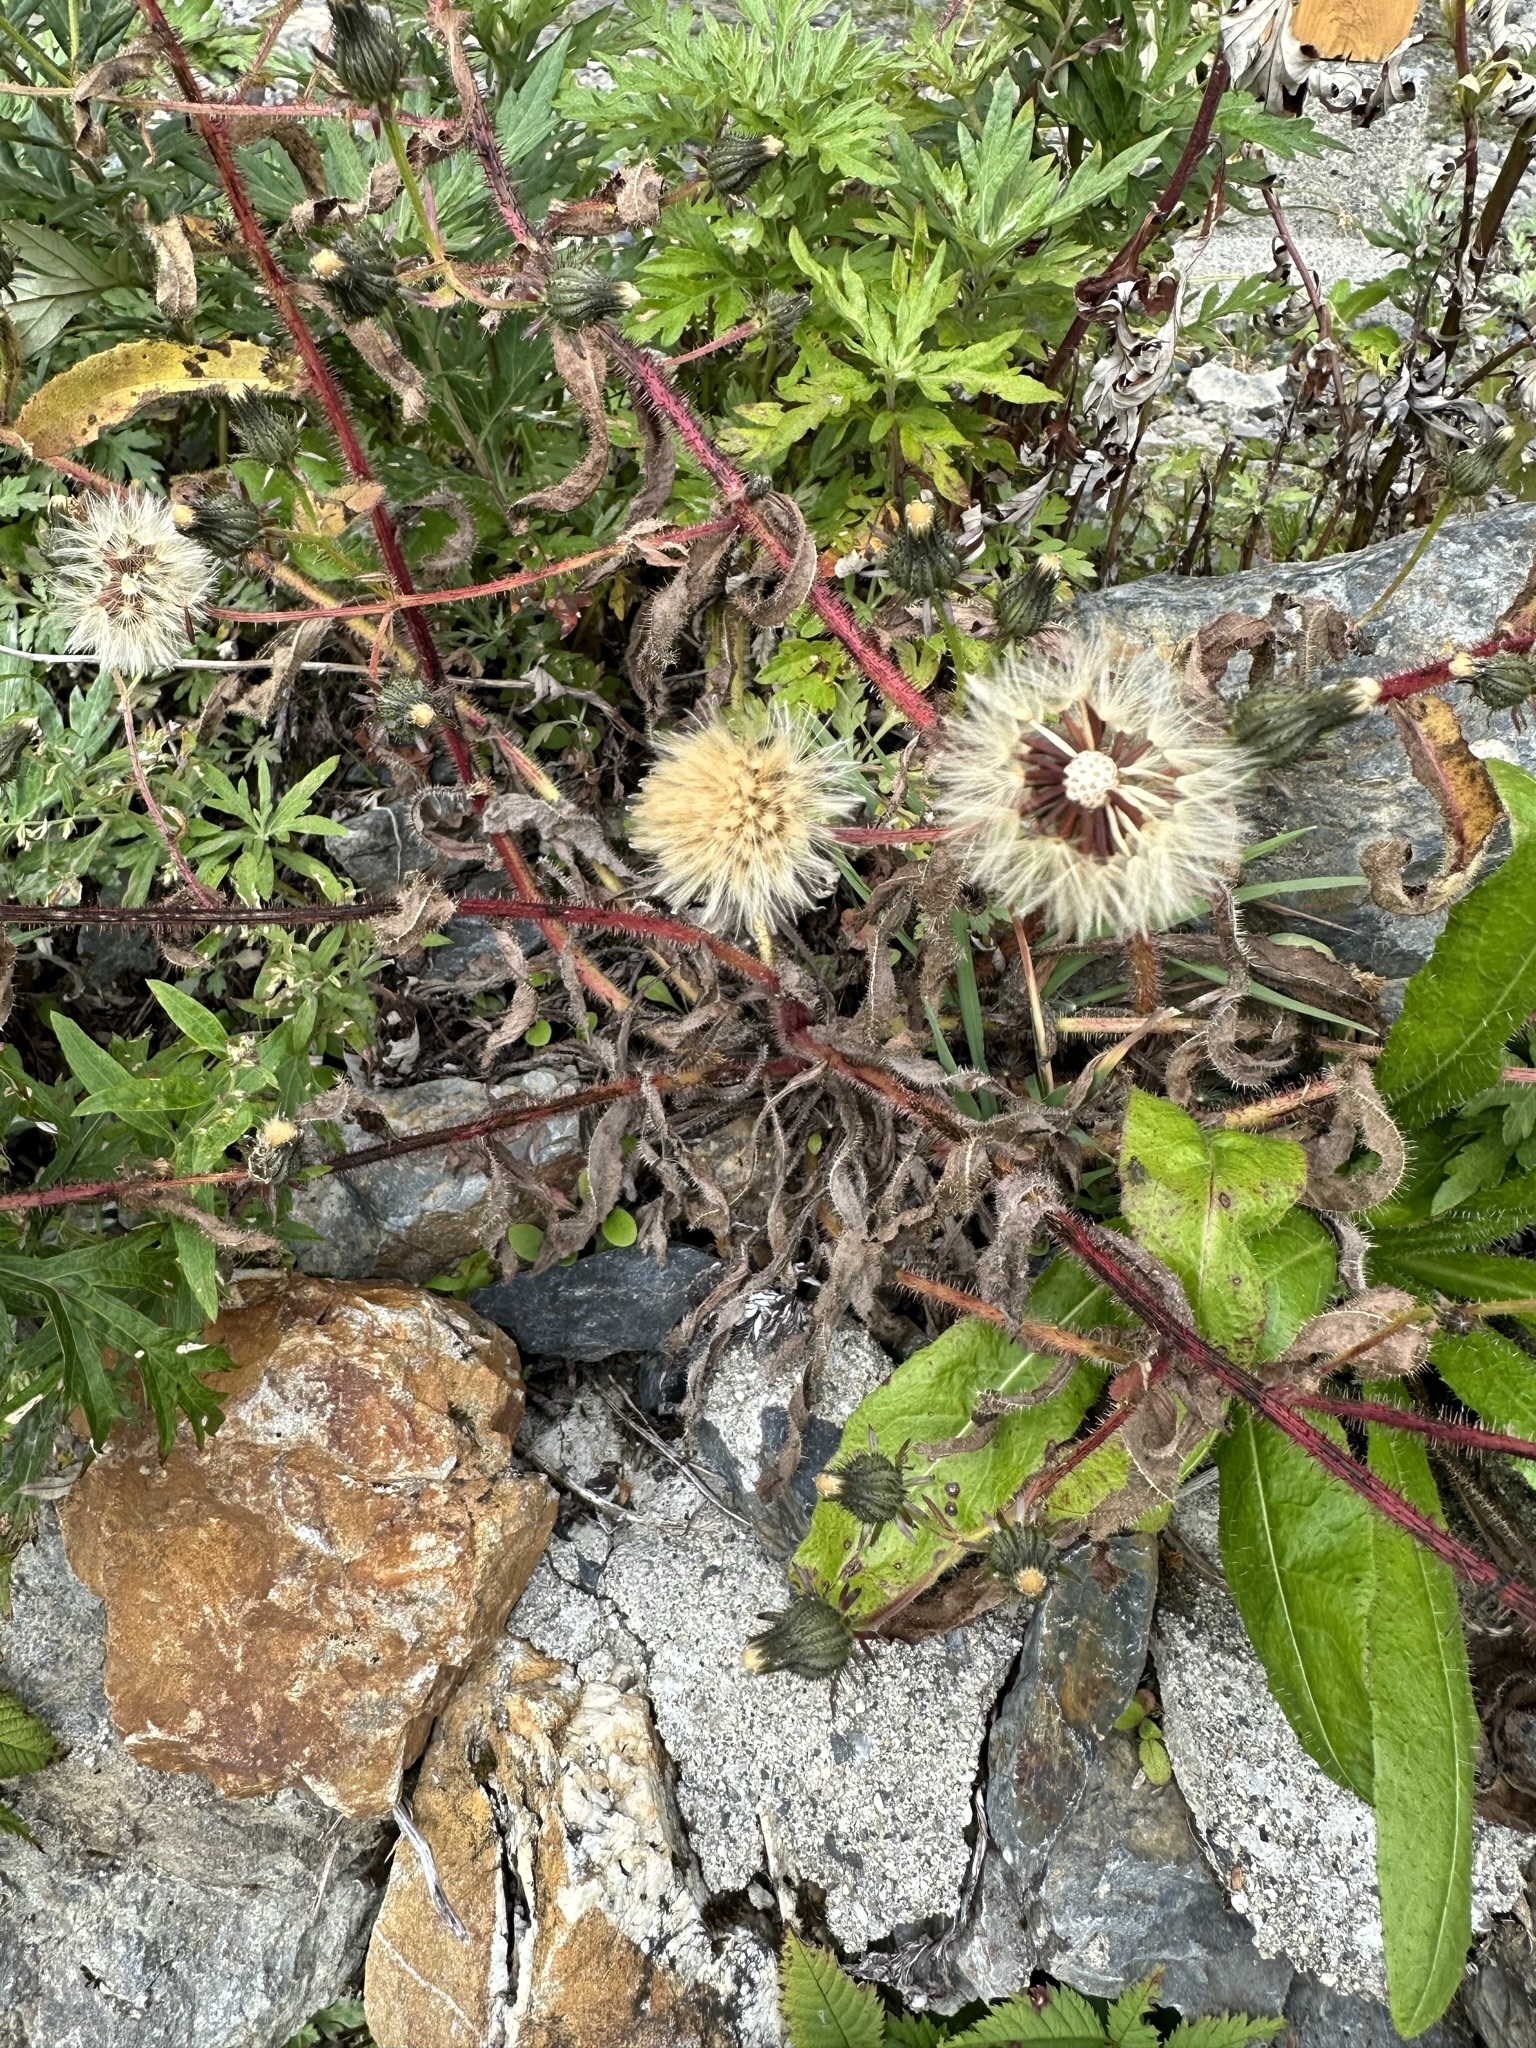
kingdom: Plantae
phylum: Tracheophyta
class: Magnoliopsida
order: Asterales
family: Asteraceae
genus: Picris
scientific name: Picris japonica
